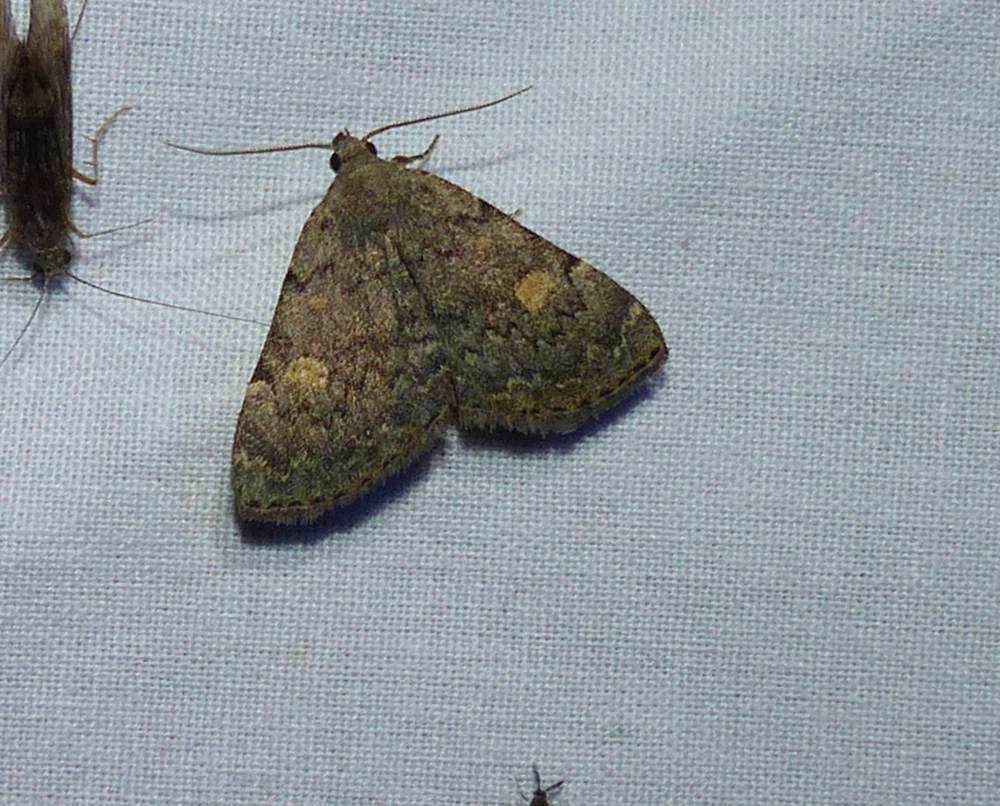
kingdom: Animalia
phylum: Arthropoda
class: Insecta
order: Lepidoptera
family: Erebidae
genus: Idia
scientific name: Idia aemula
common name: Common idia moth
